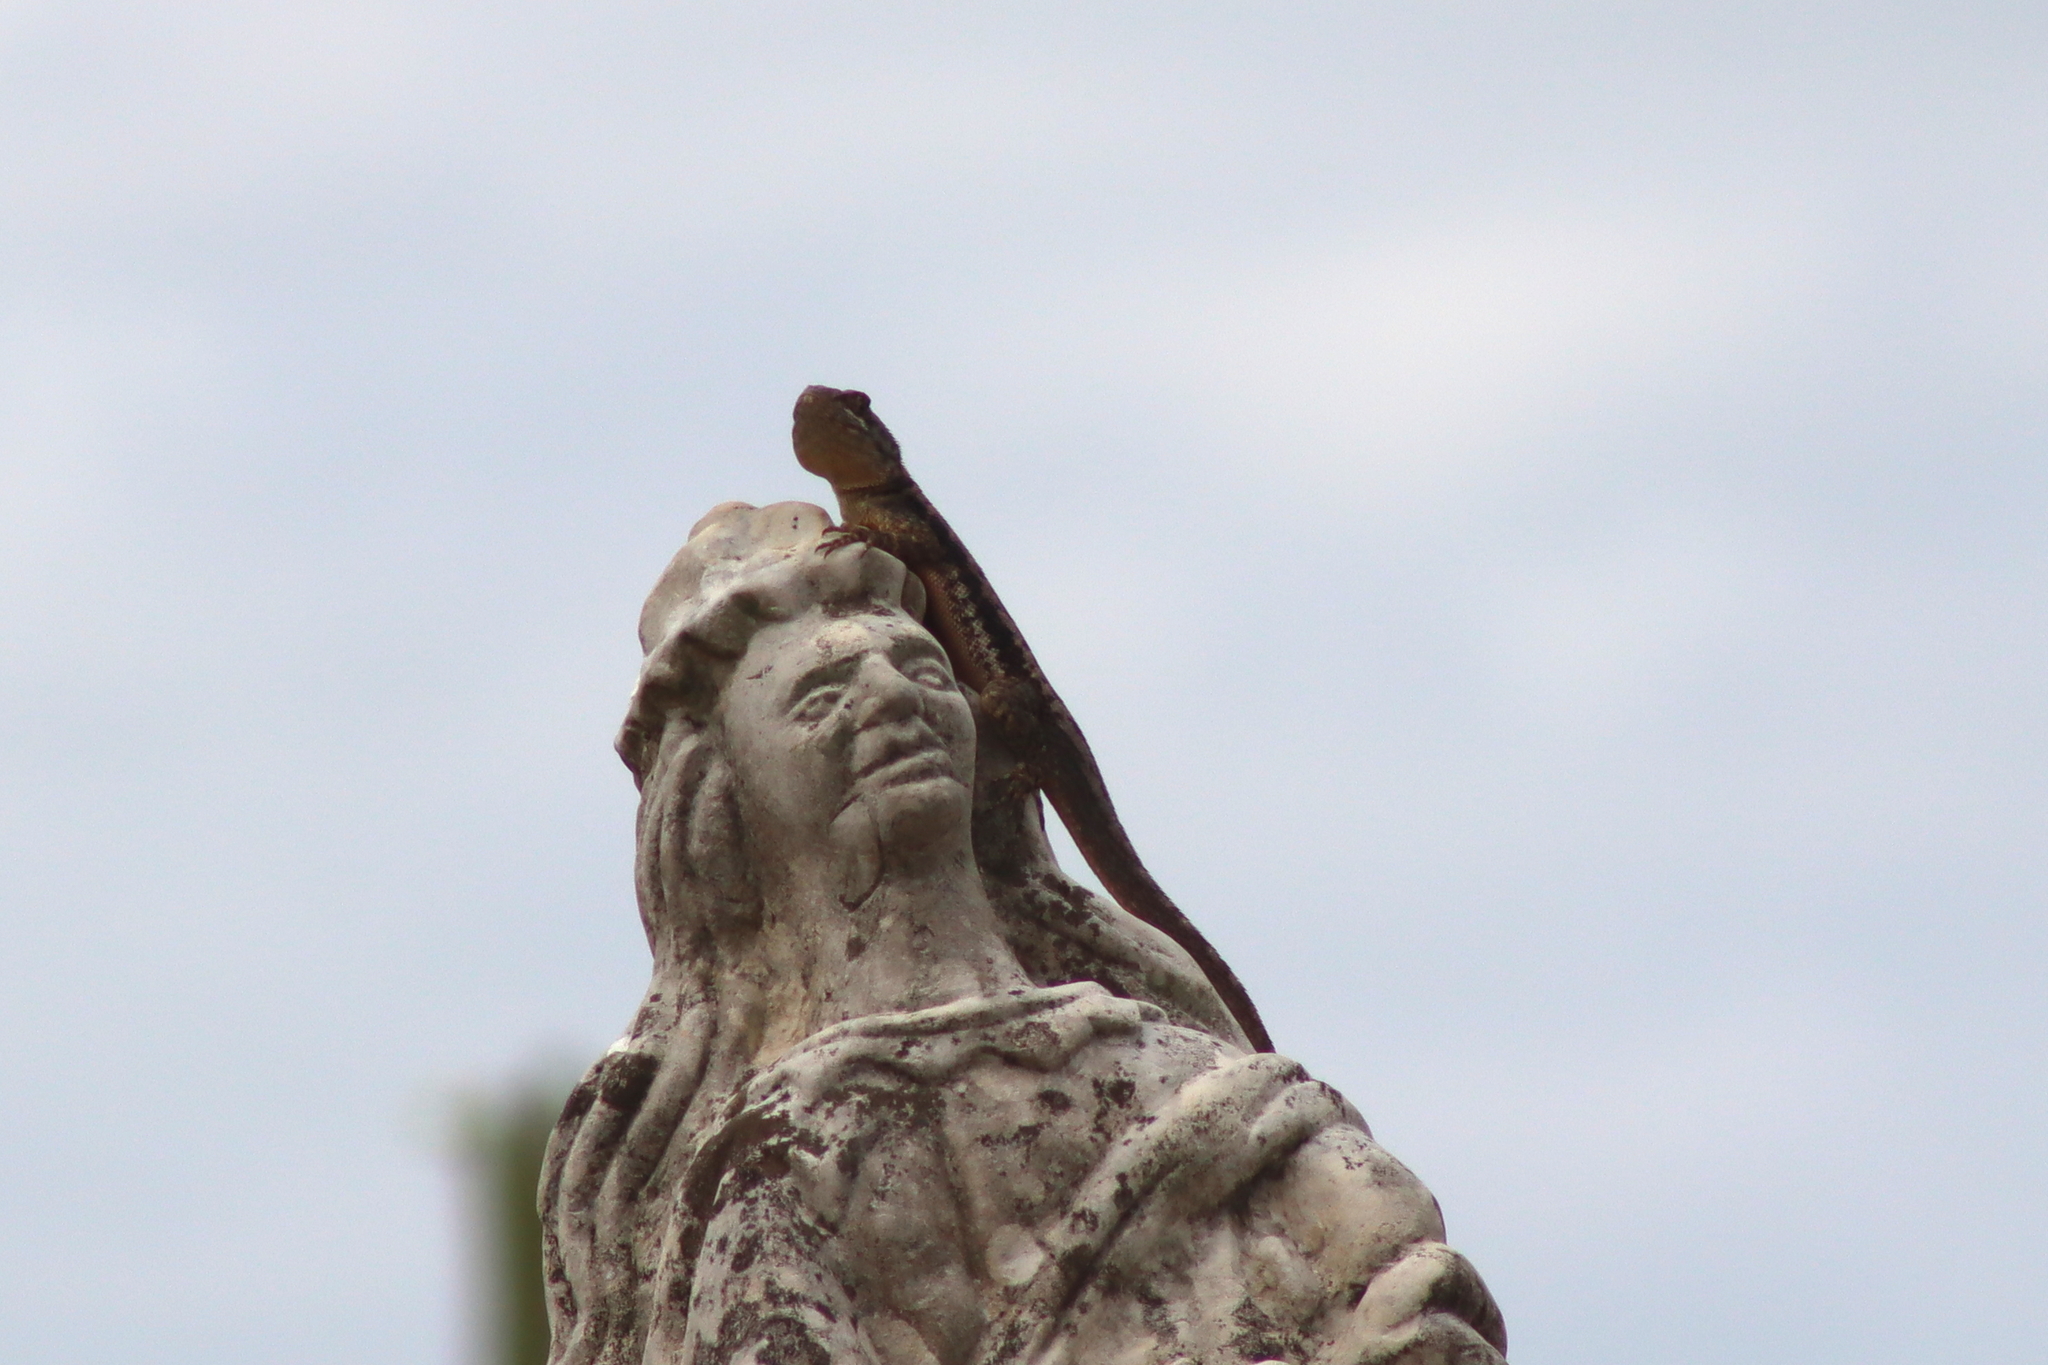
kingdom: Animalia
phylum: Chordata
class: Squamata
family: Tropiduridae
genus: Tropidurus
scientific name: Tropidurus hispidus
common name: Peters' lava lizard
